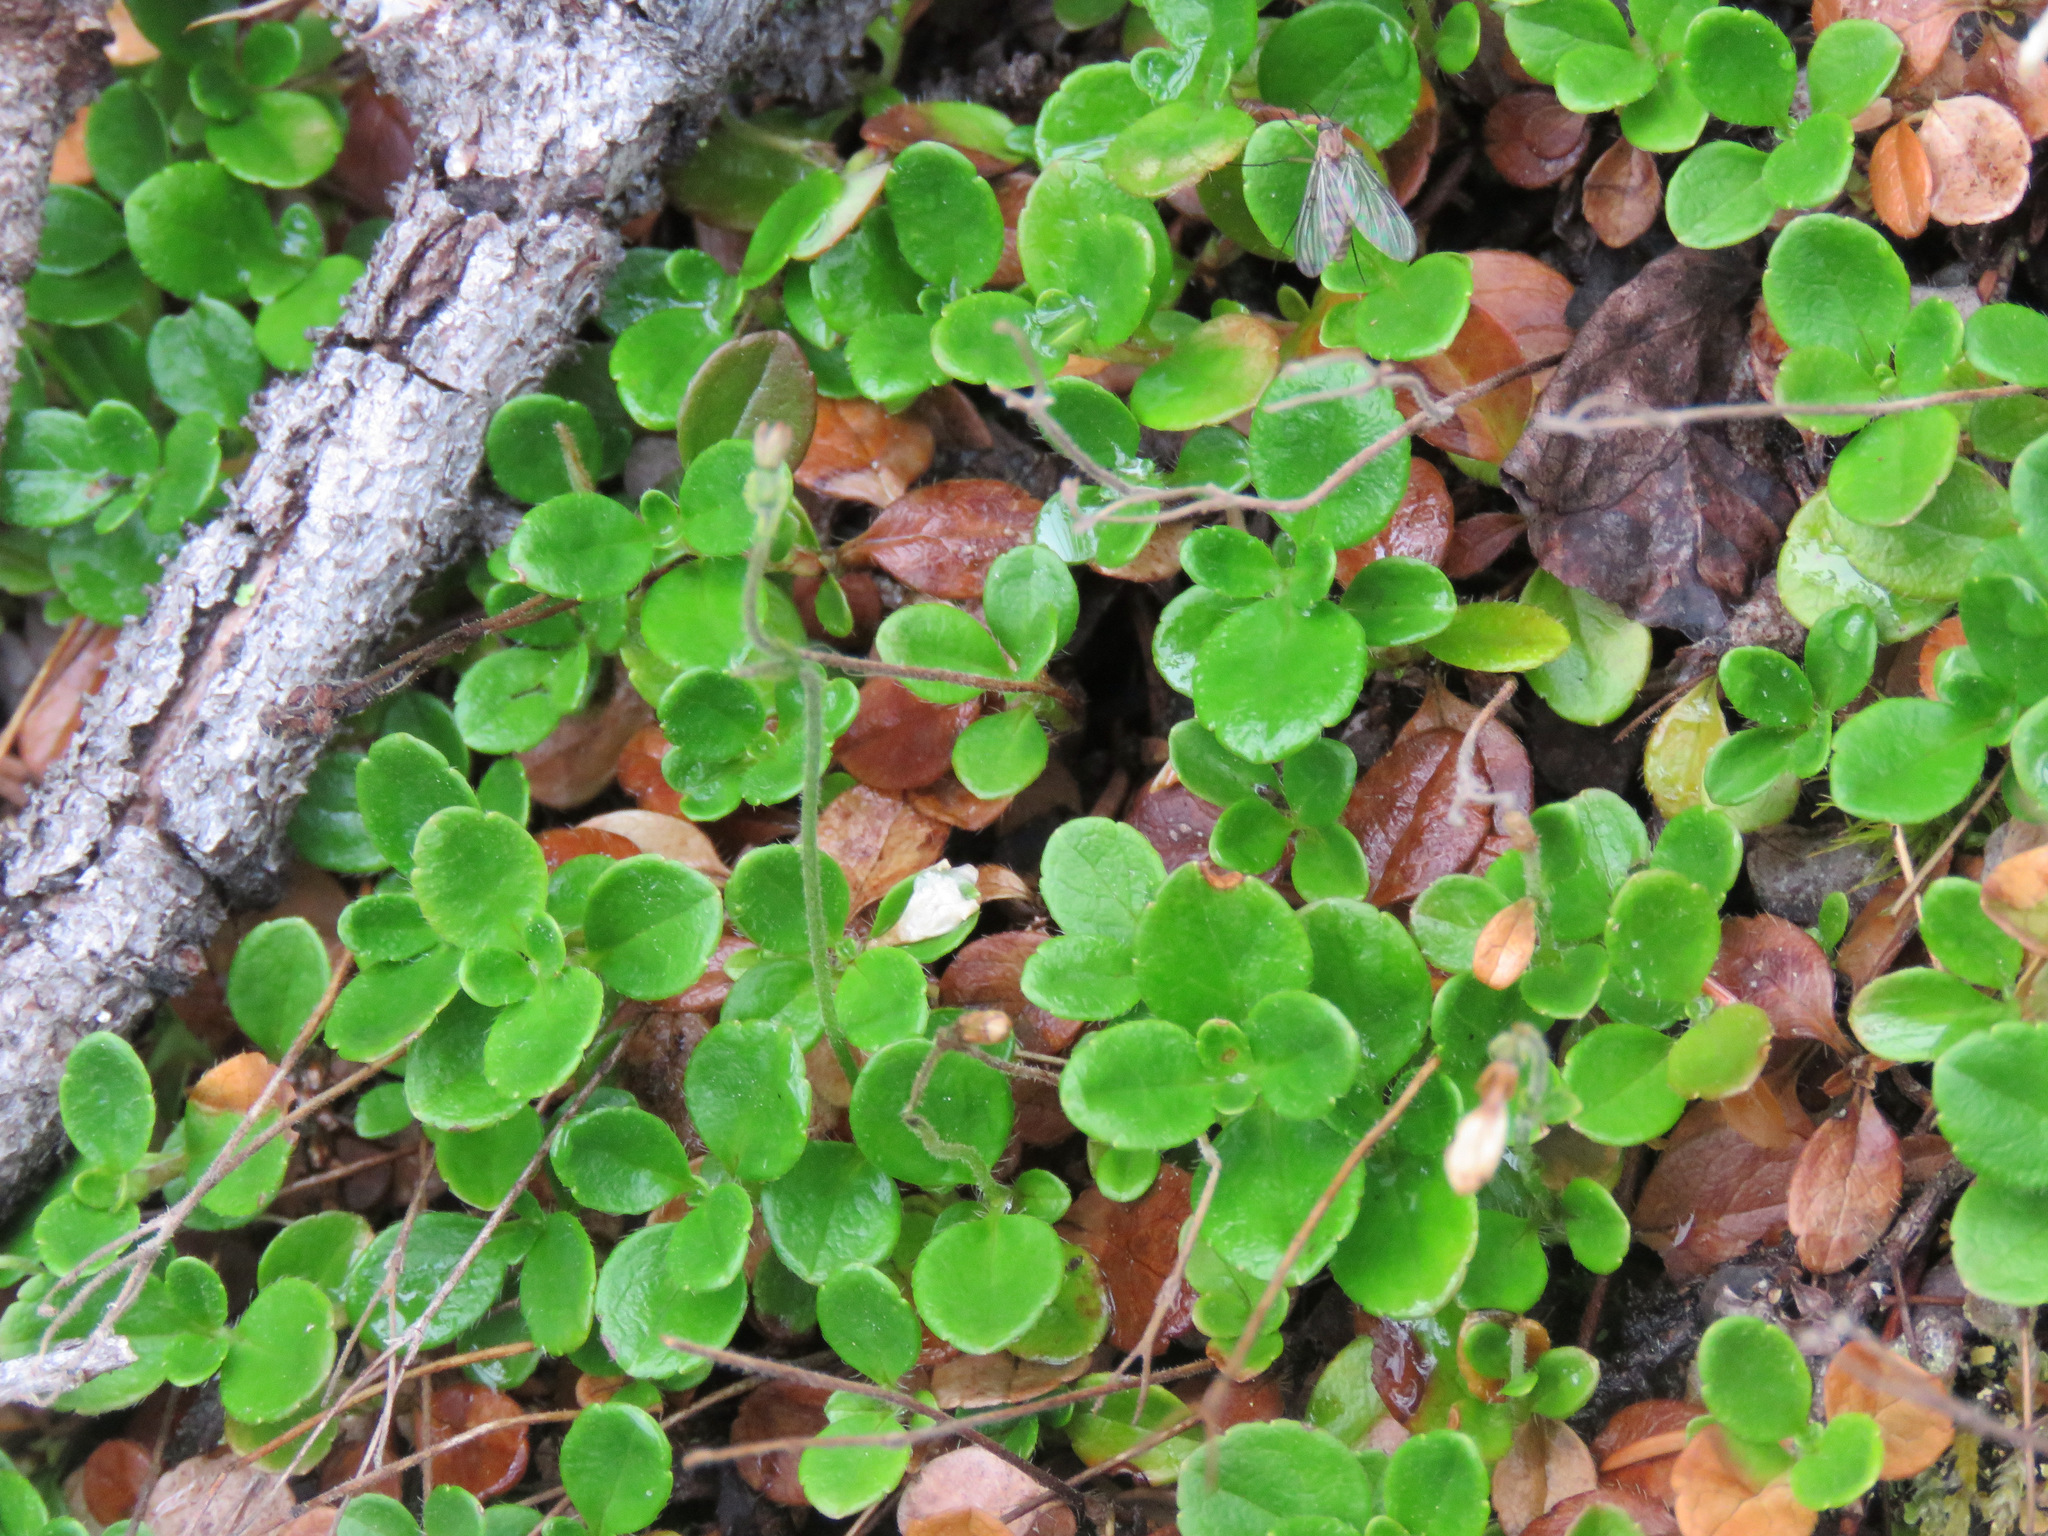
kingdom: Plantae
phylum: Tracheophyta
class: Magnoliopsida
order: Dipsacales
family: Caprifoliaceae
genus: Linnaea
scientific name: Linnaea borealis
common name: Twinflower
